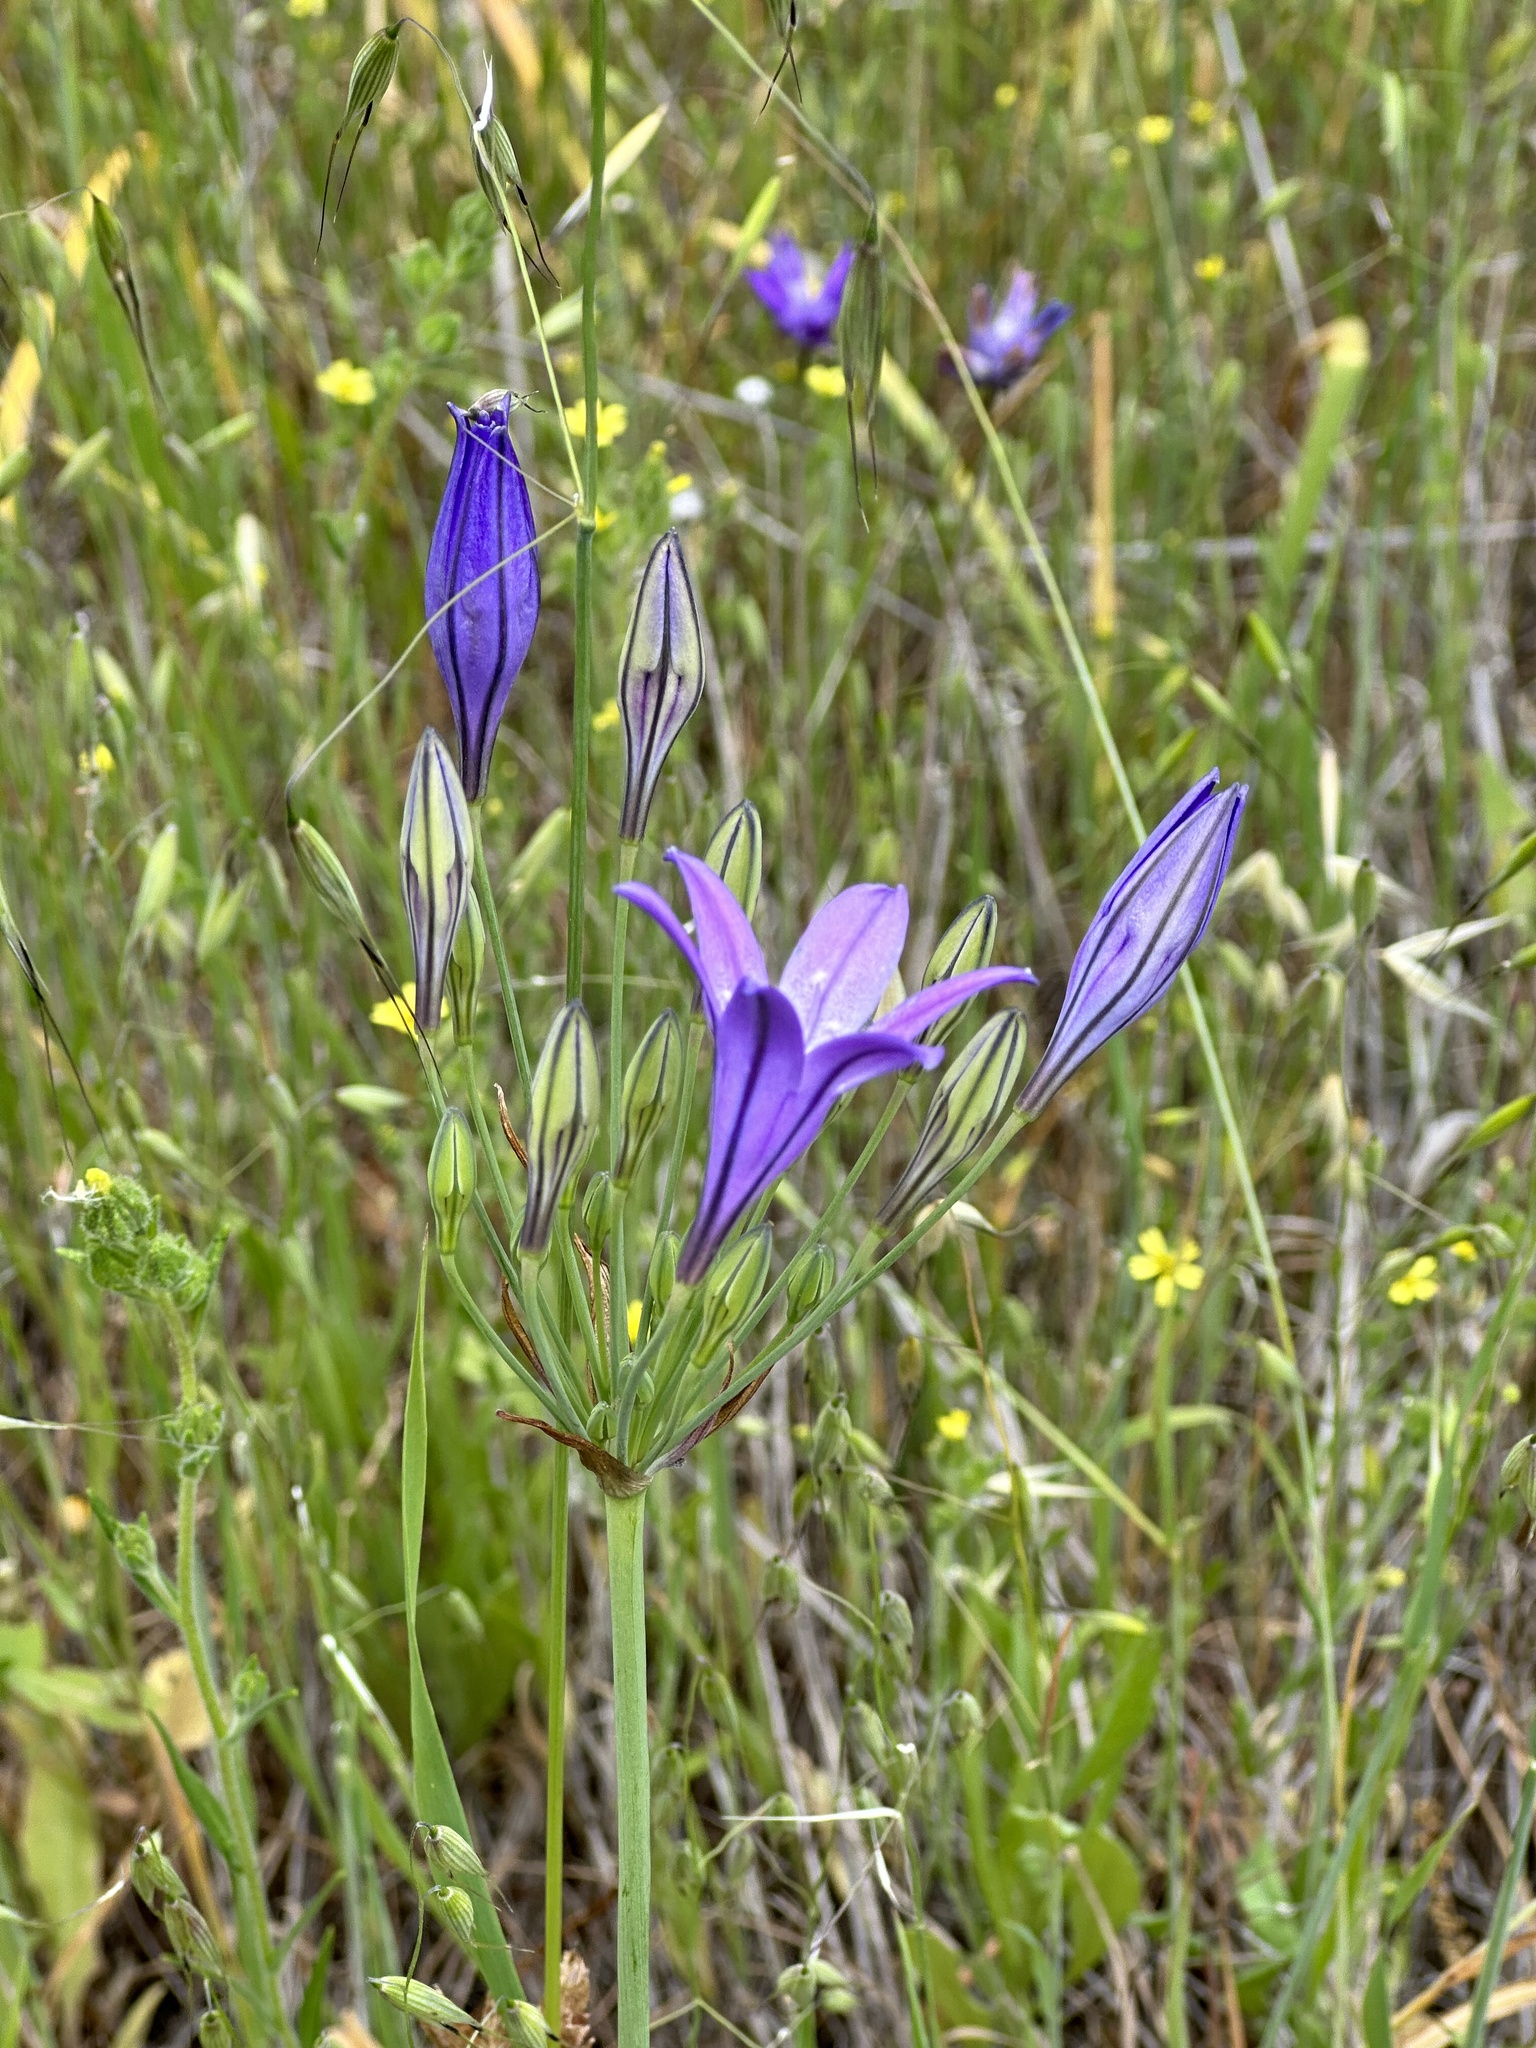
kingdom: Plantae
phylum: Tracheophyta
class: Liliopsida
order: Asparagales
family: Asparagaceae
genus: Triteleia
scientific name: Triteleia laxa
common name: Triplet-lily
